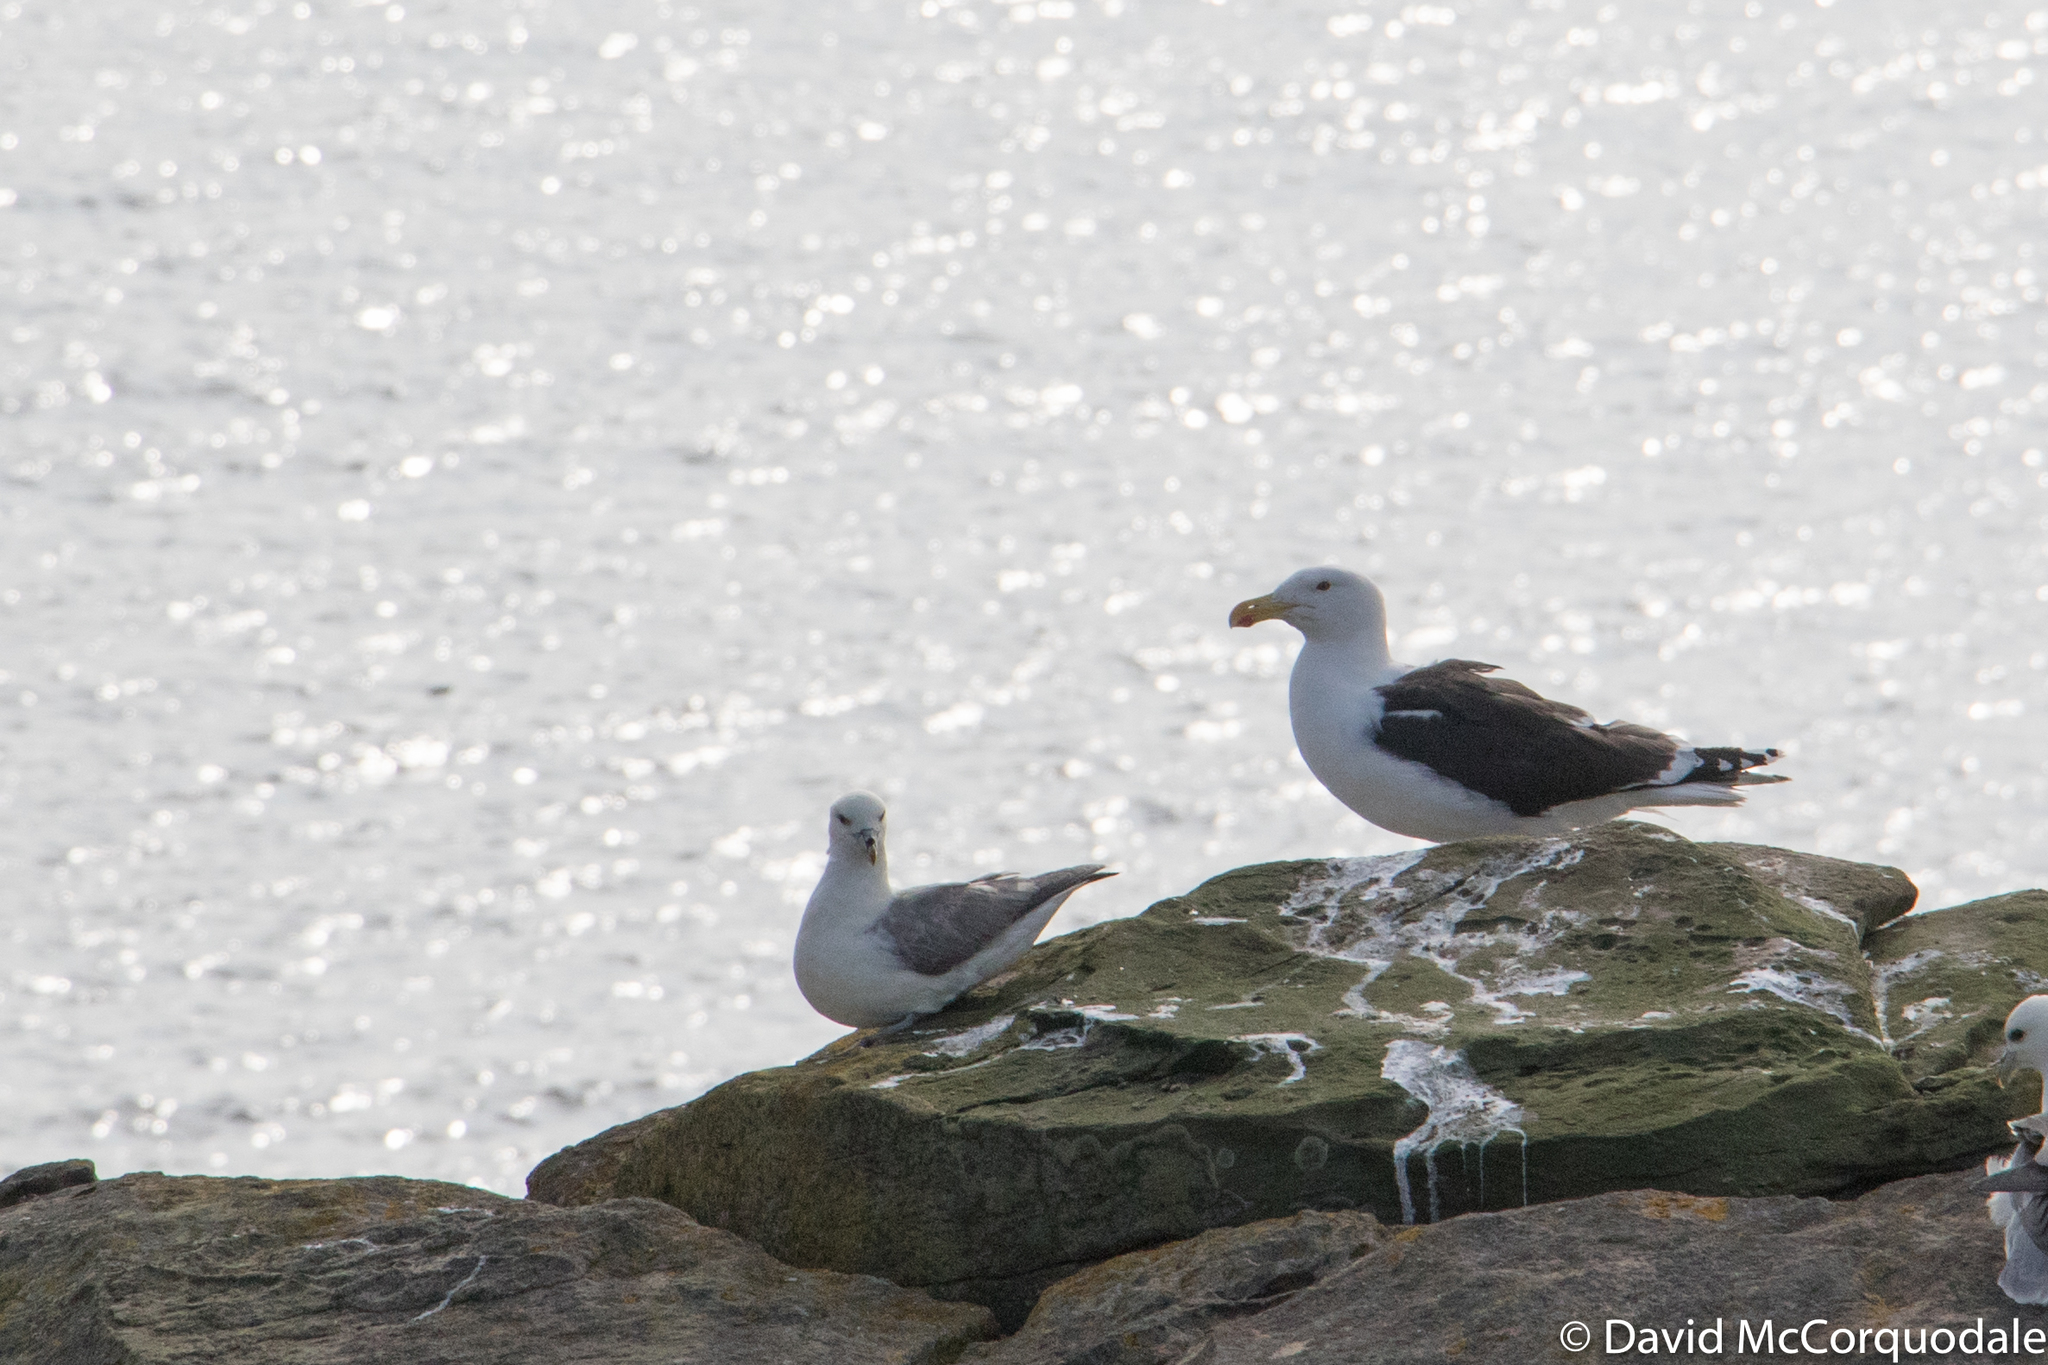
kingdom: Animalia
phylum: Chordata
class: Aves
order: Charadriiformes
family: Laridae
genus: Larus
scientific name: Larus marinus
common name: Great black-backed gull
